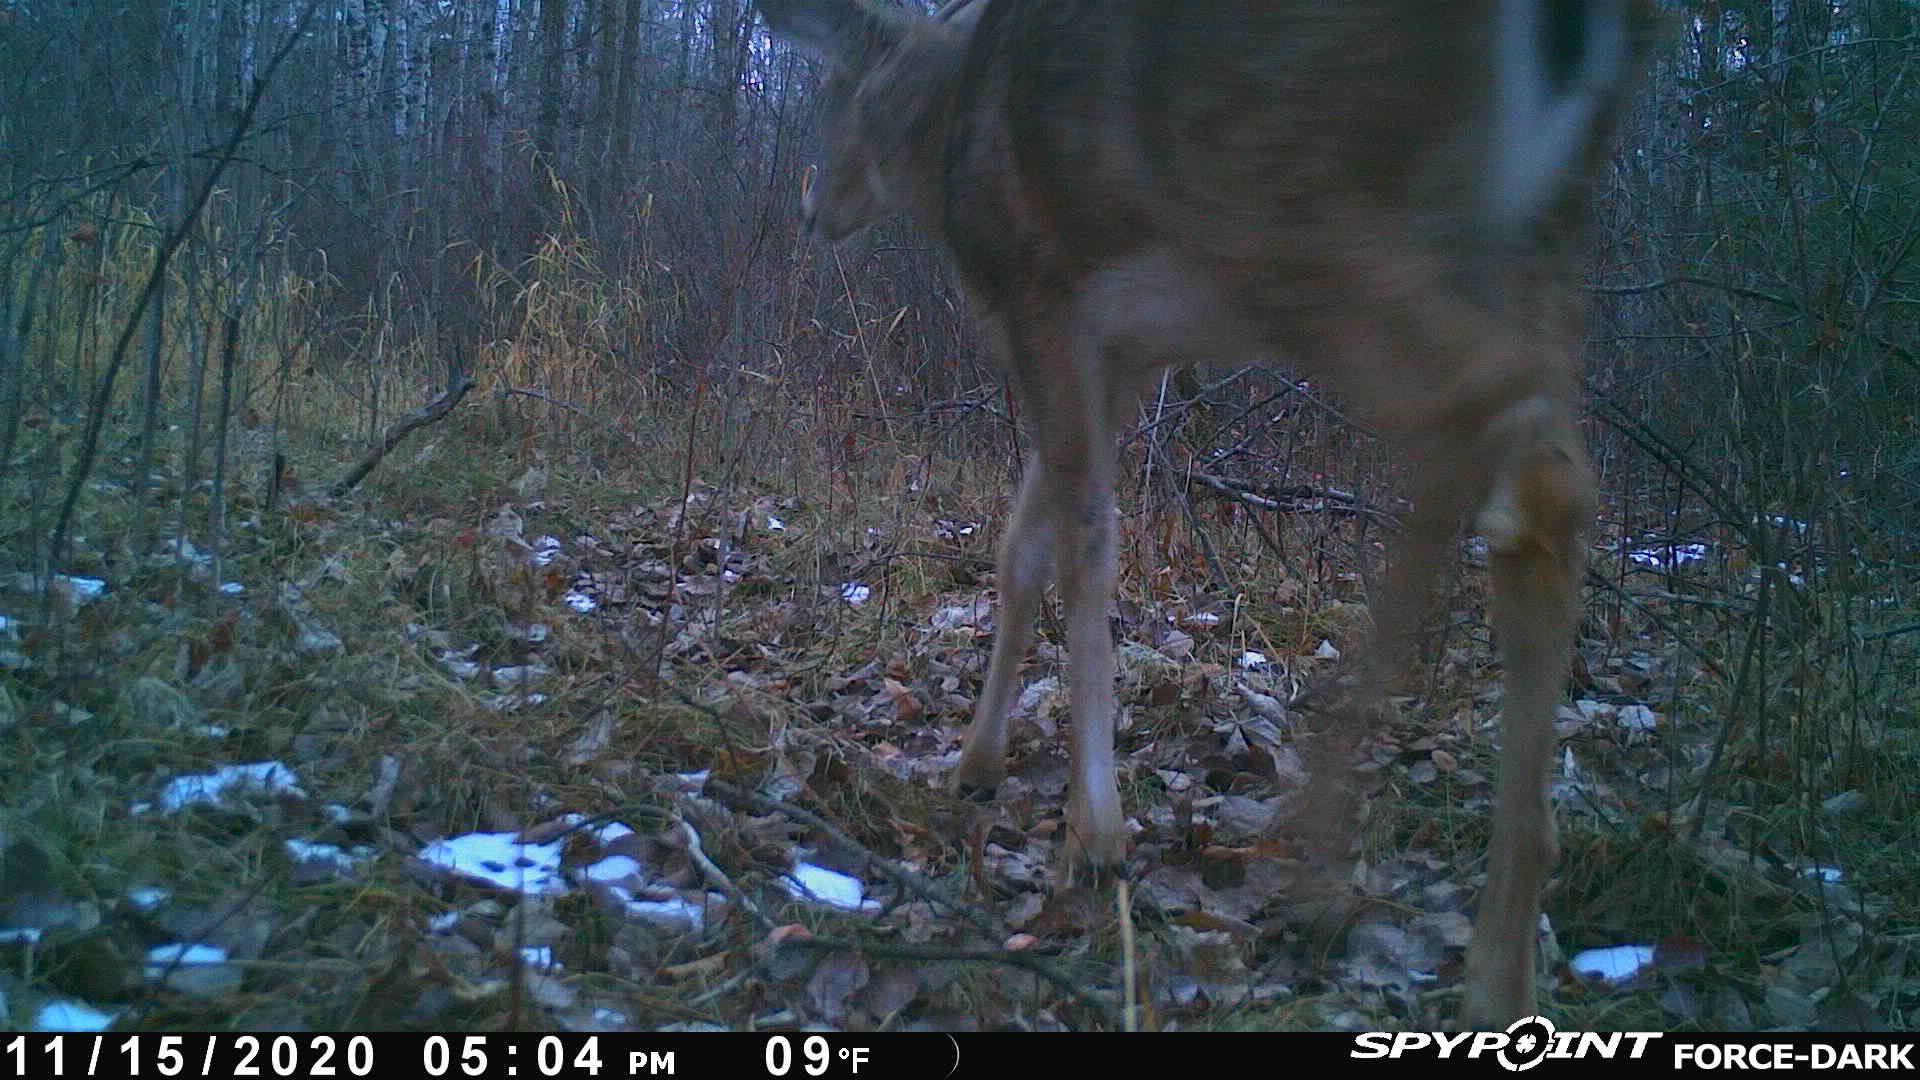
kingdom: Animalia
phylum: Chordata
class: Mammalia
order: Artiodactyla
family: Cervidae
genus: Odocoileus
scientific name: Odocoileus virginianus
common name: White-tailed deer
